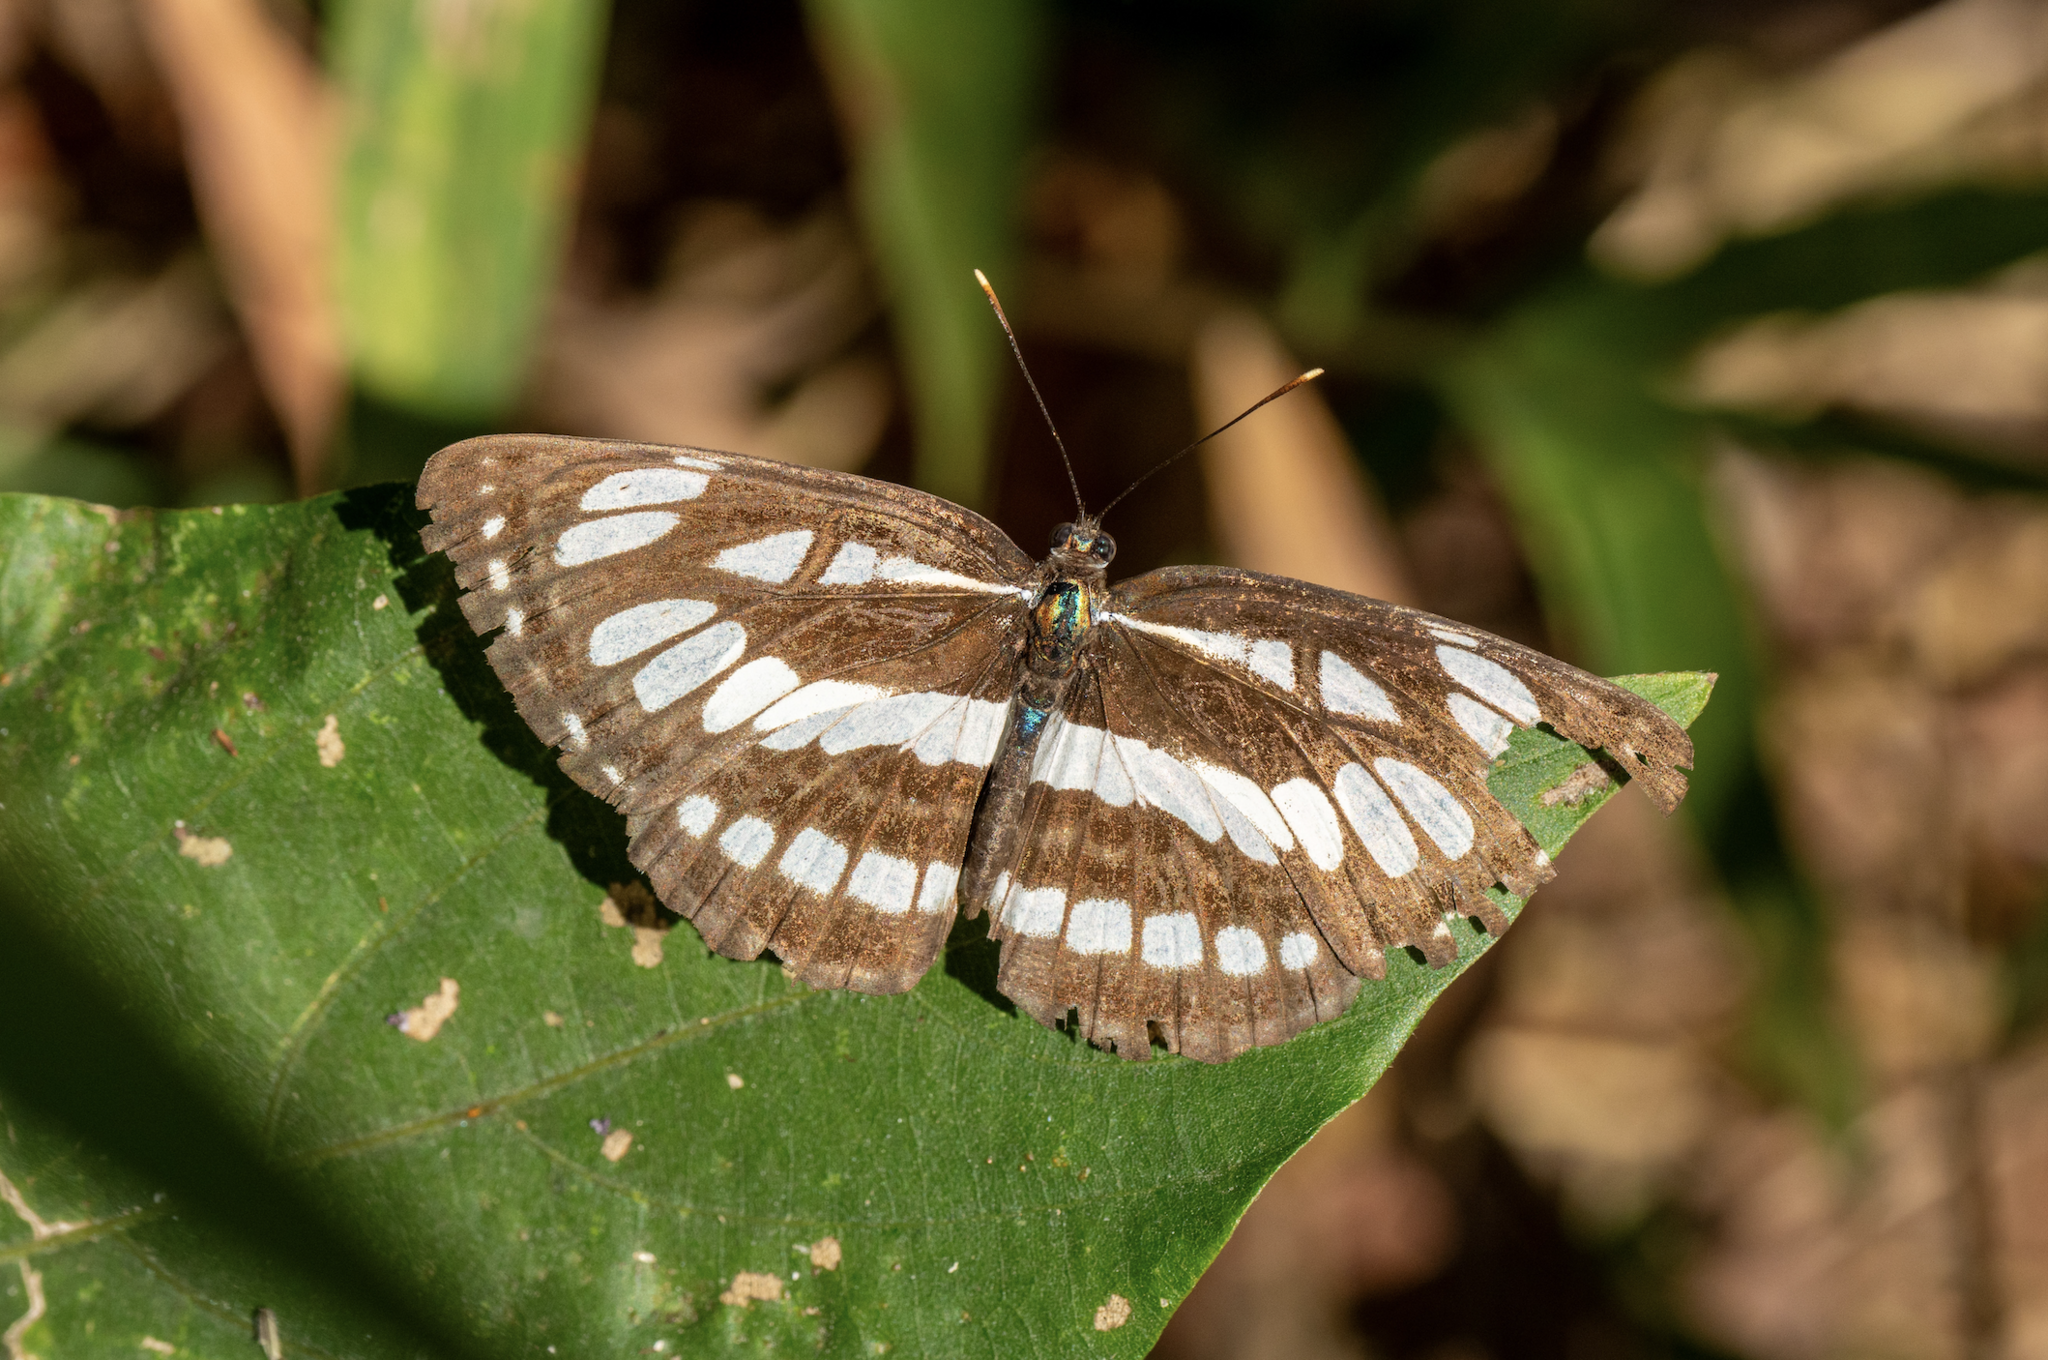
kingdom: Animalia
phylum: Arthropoda
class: Insecta
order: Lepidoptera
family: Nymphalidae
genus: Neptis
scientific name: Neptis hylas
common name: Common sailer
